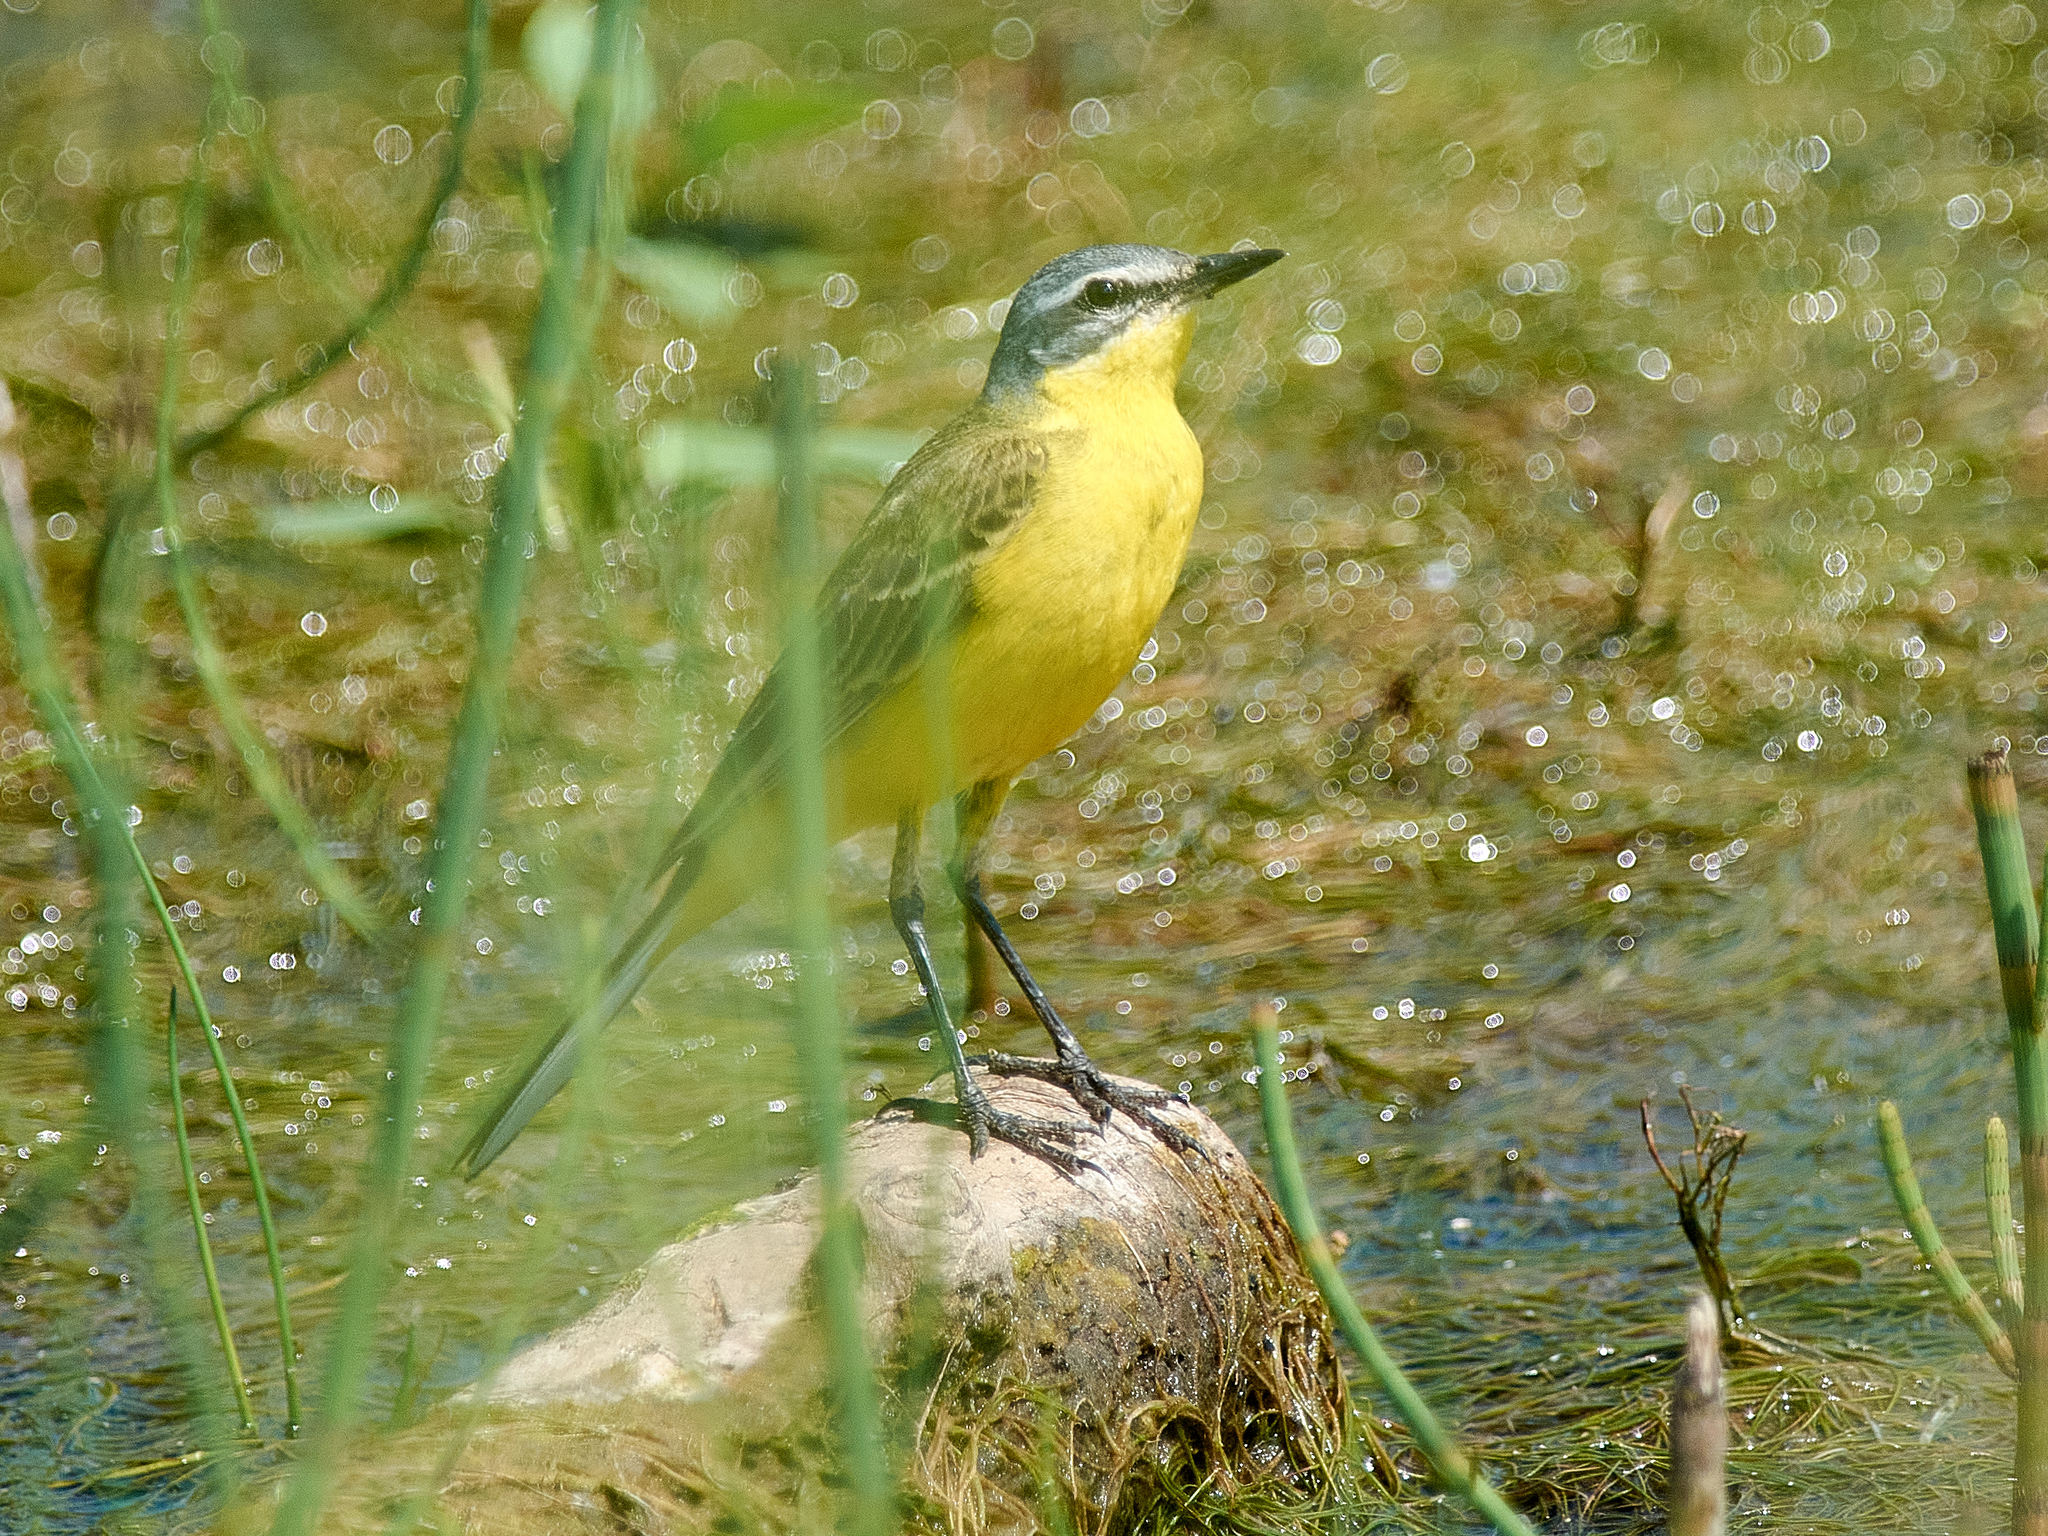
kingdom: Animalia
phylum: Chordata
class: Aves
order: Passeriformes
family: Motacillidae
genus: Motacilla
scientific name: Motacilla flava
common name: Western yellow wagtail
